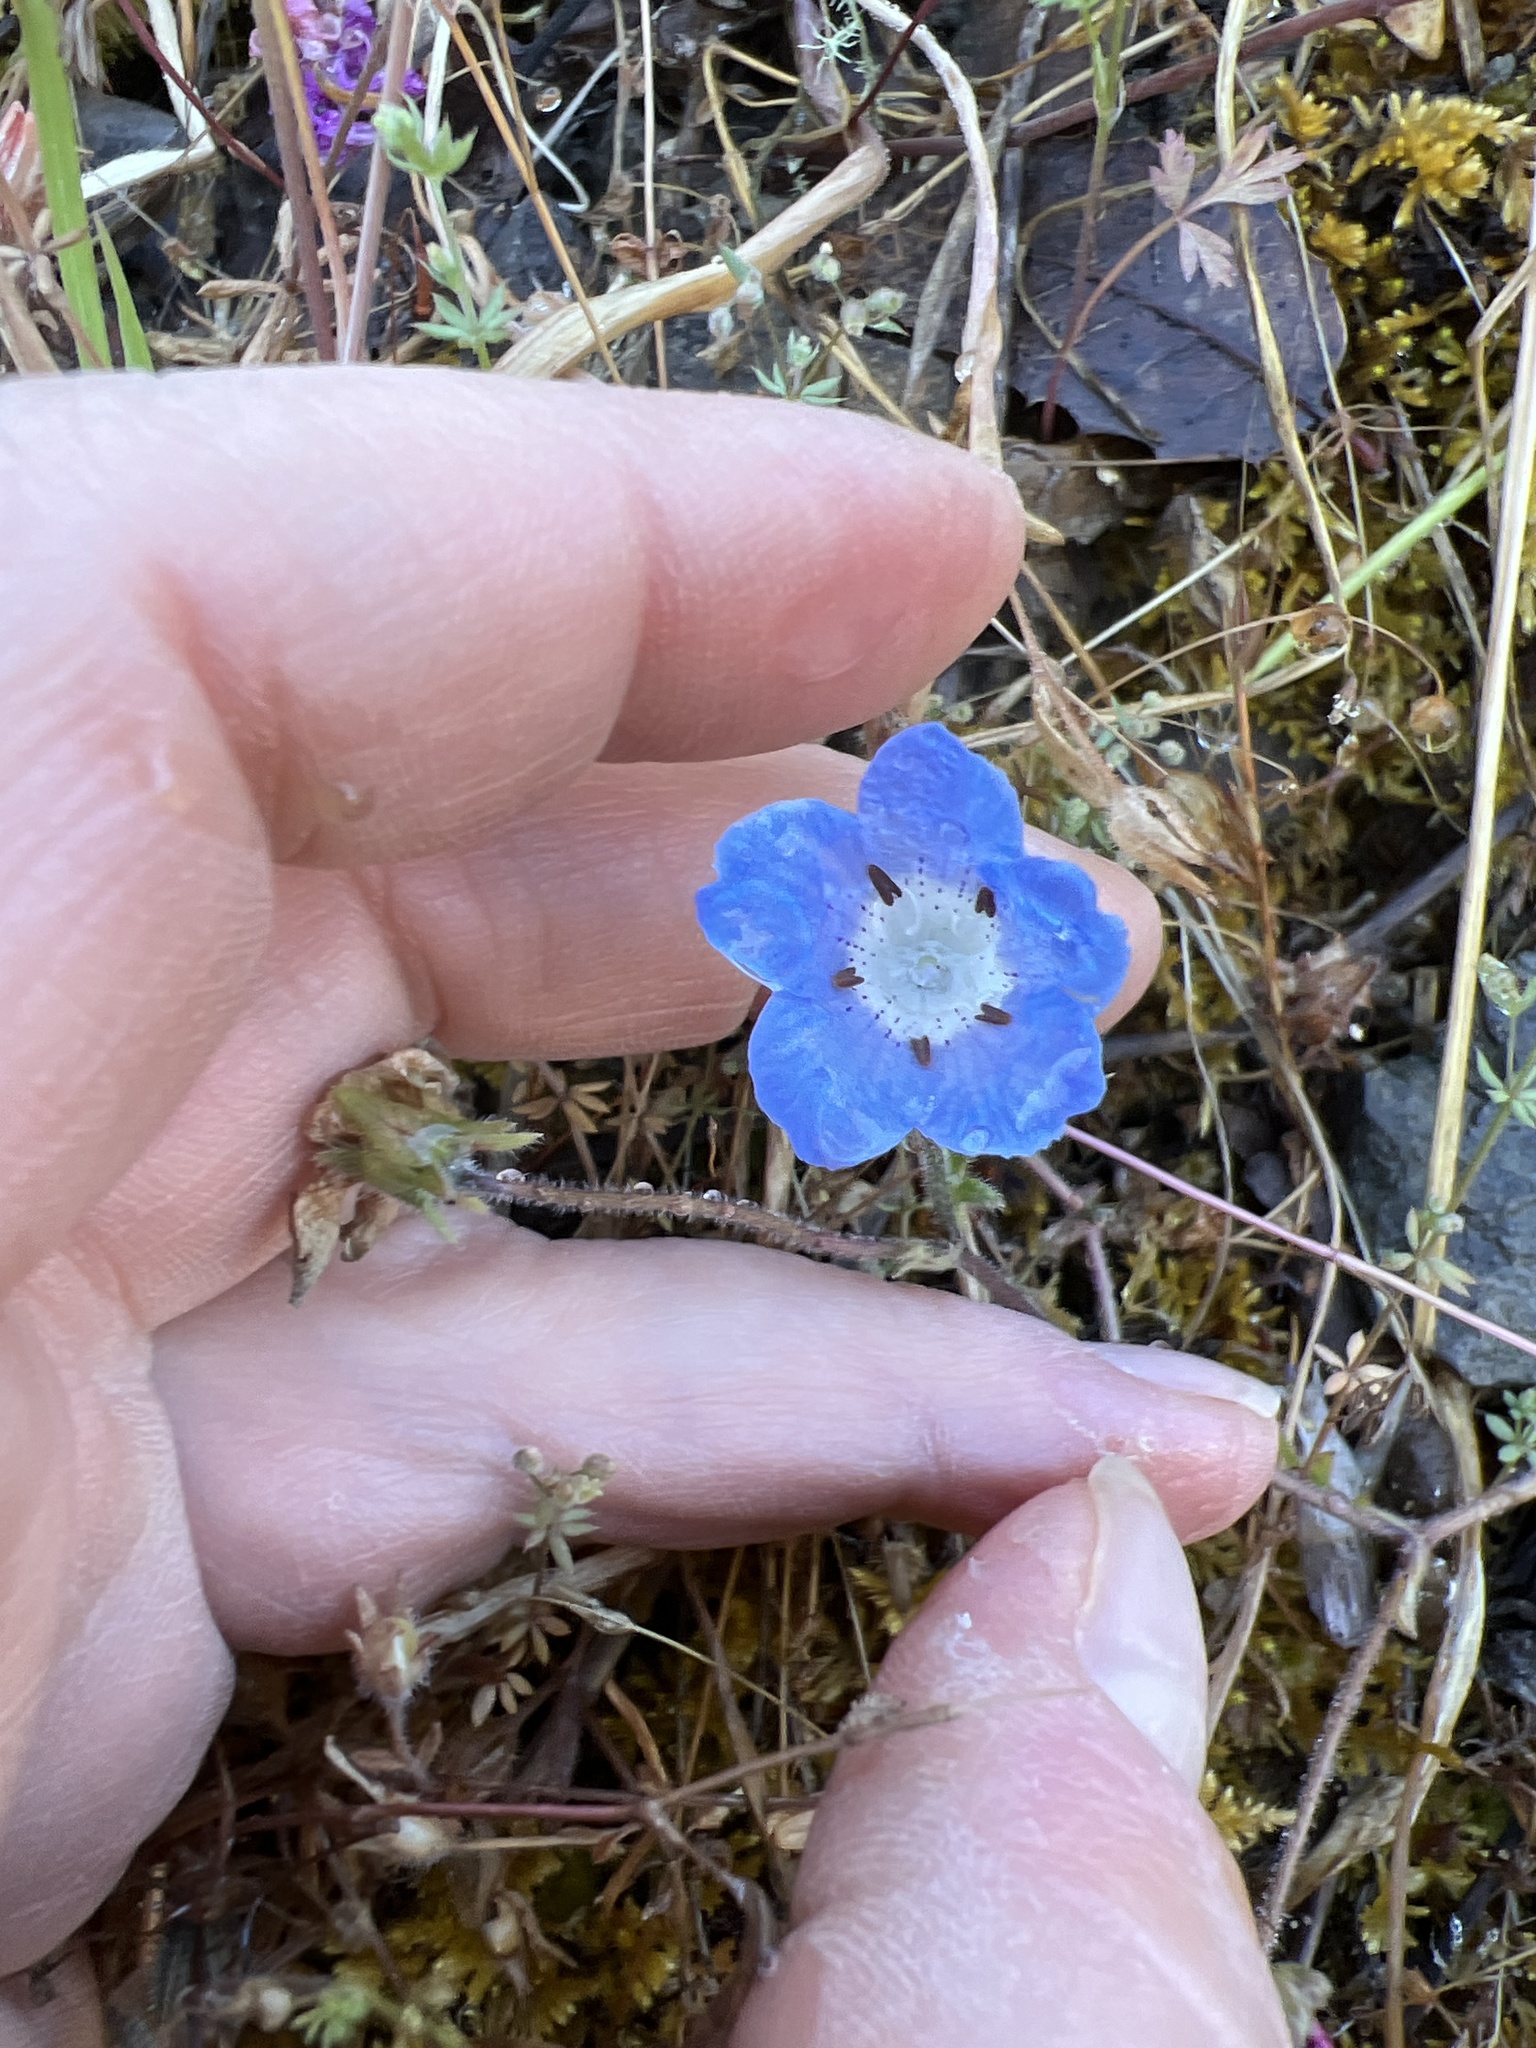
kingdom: Plantae
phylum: Tracheophyta
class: Magnoliopsida
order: Boraginales
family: Hydrophyllaceae
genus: Nemophila
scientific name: Nemophila menziesii
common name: Baby's-blue-eyes
